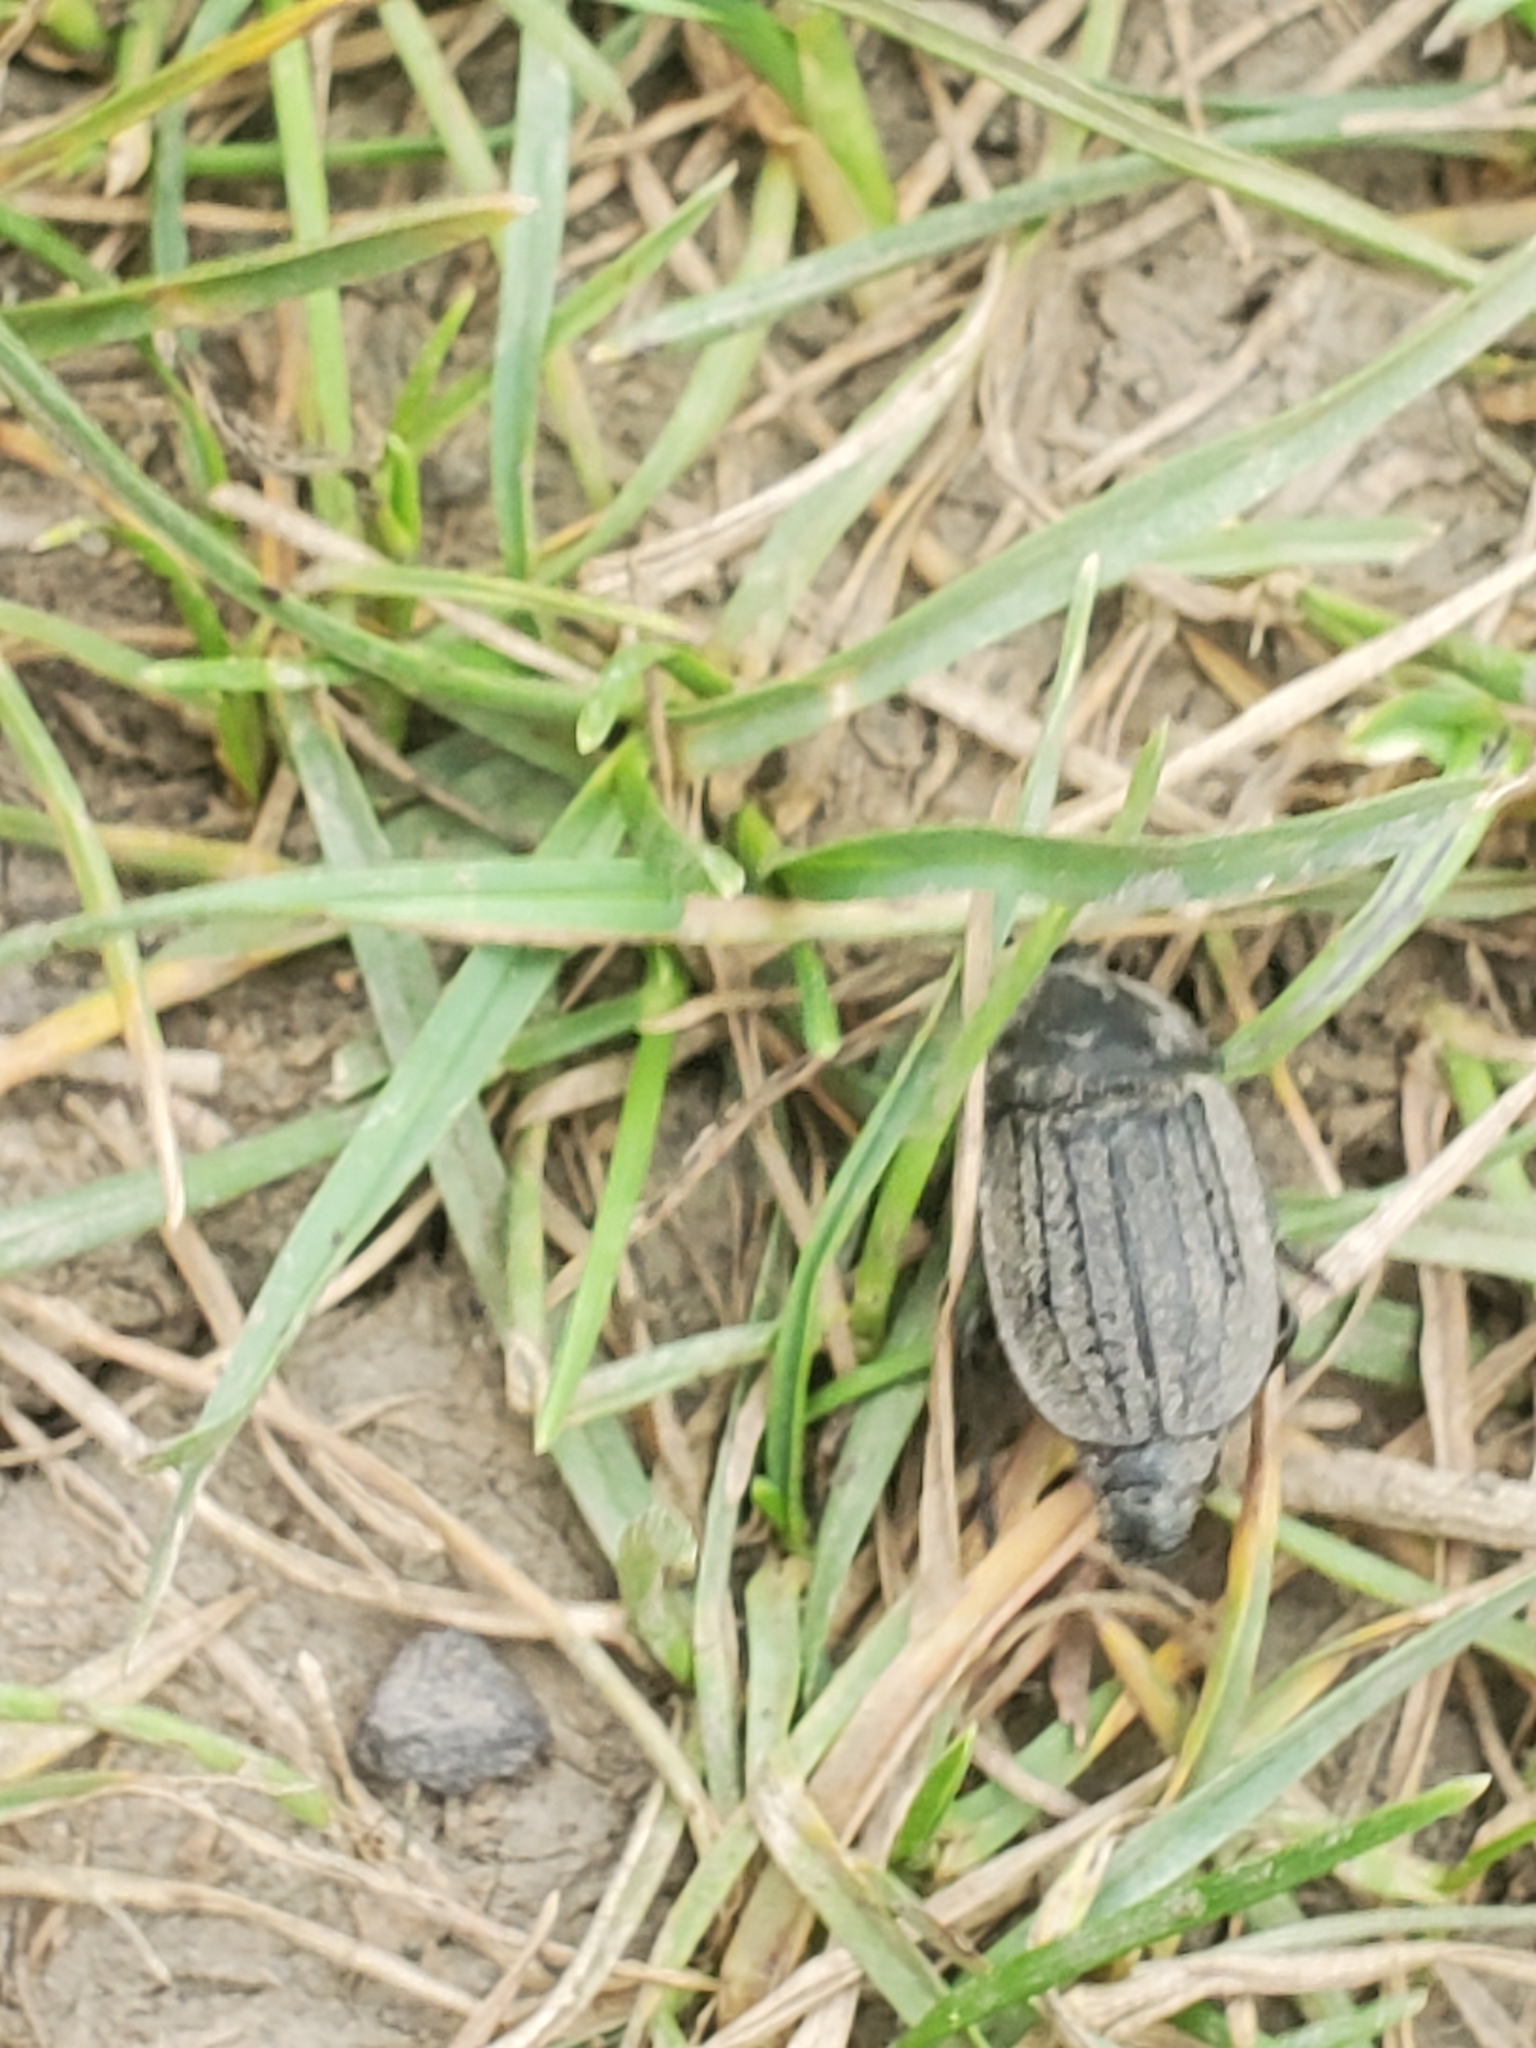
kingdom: Animalia
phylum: Arthropoda
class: Insecta
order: Coleoptera
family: Staphylinidae
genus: Heterosilpha
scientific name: Heterosilpha ramosa
